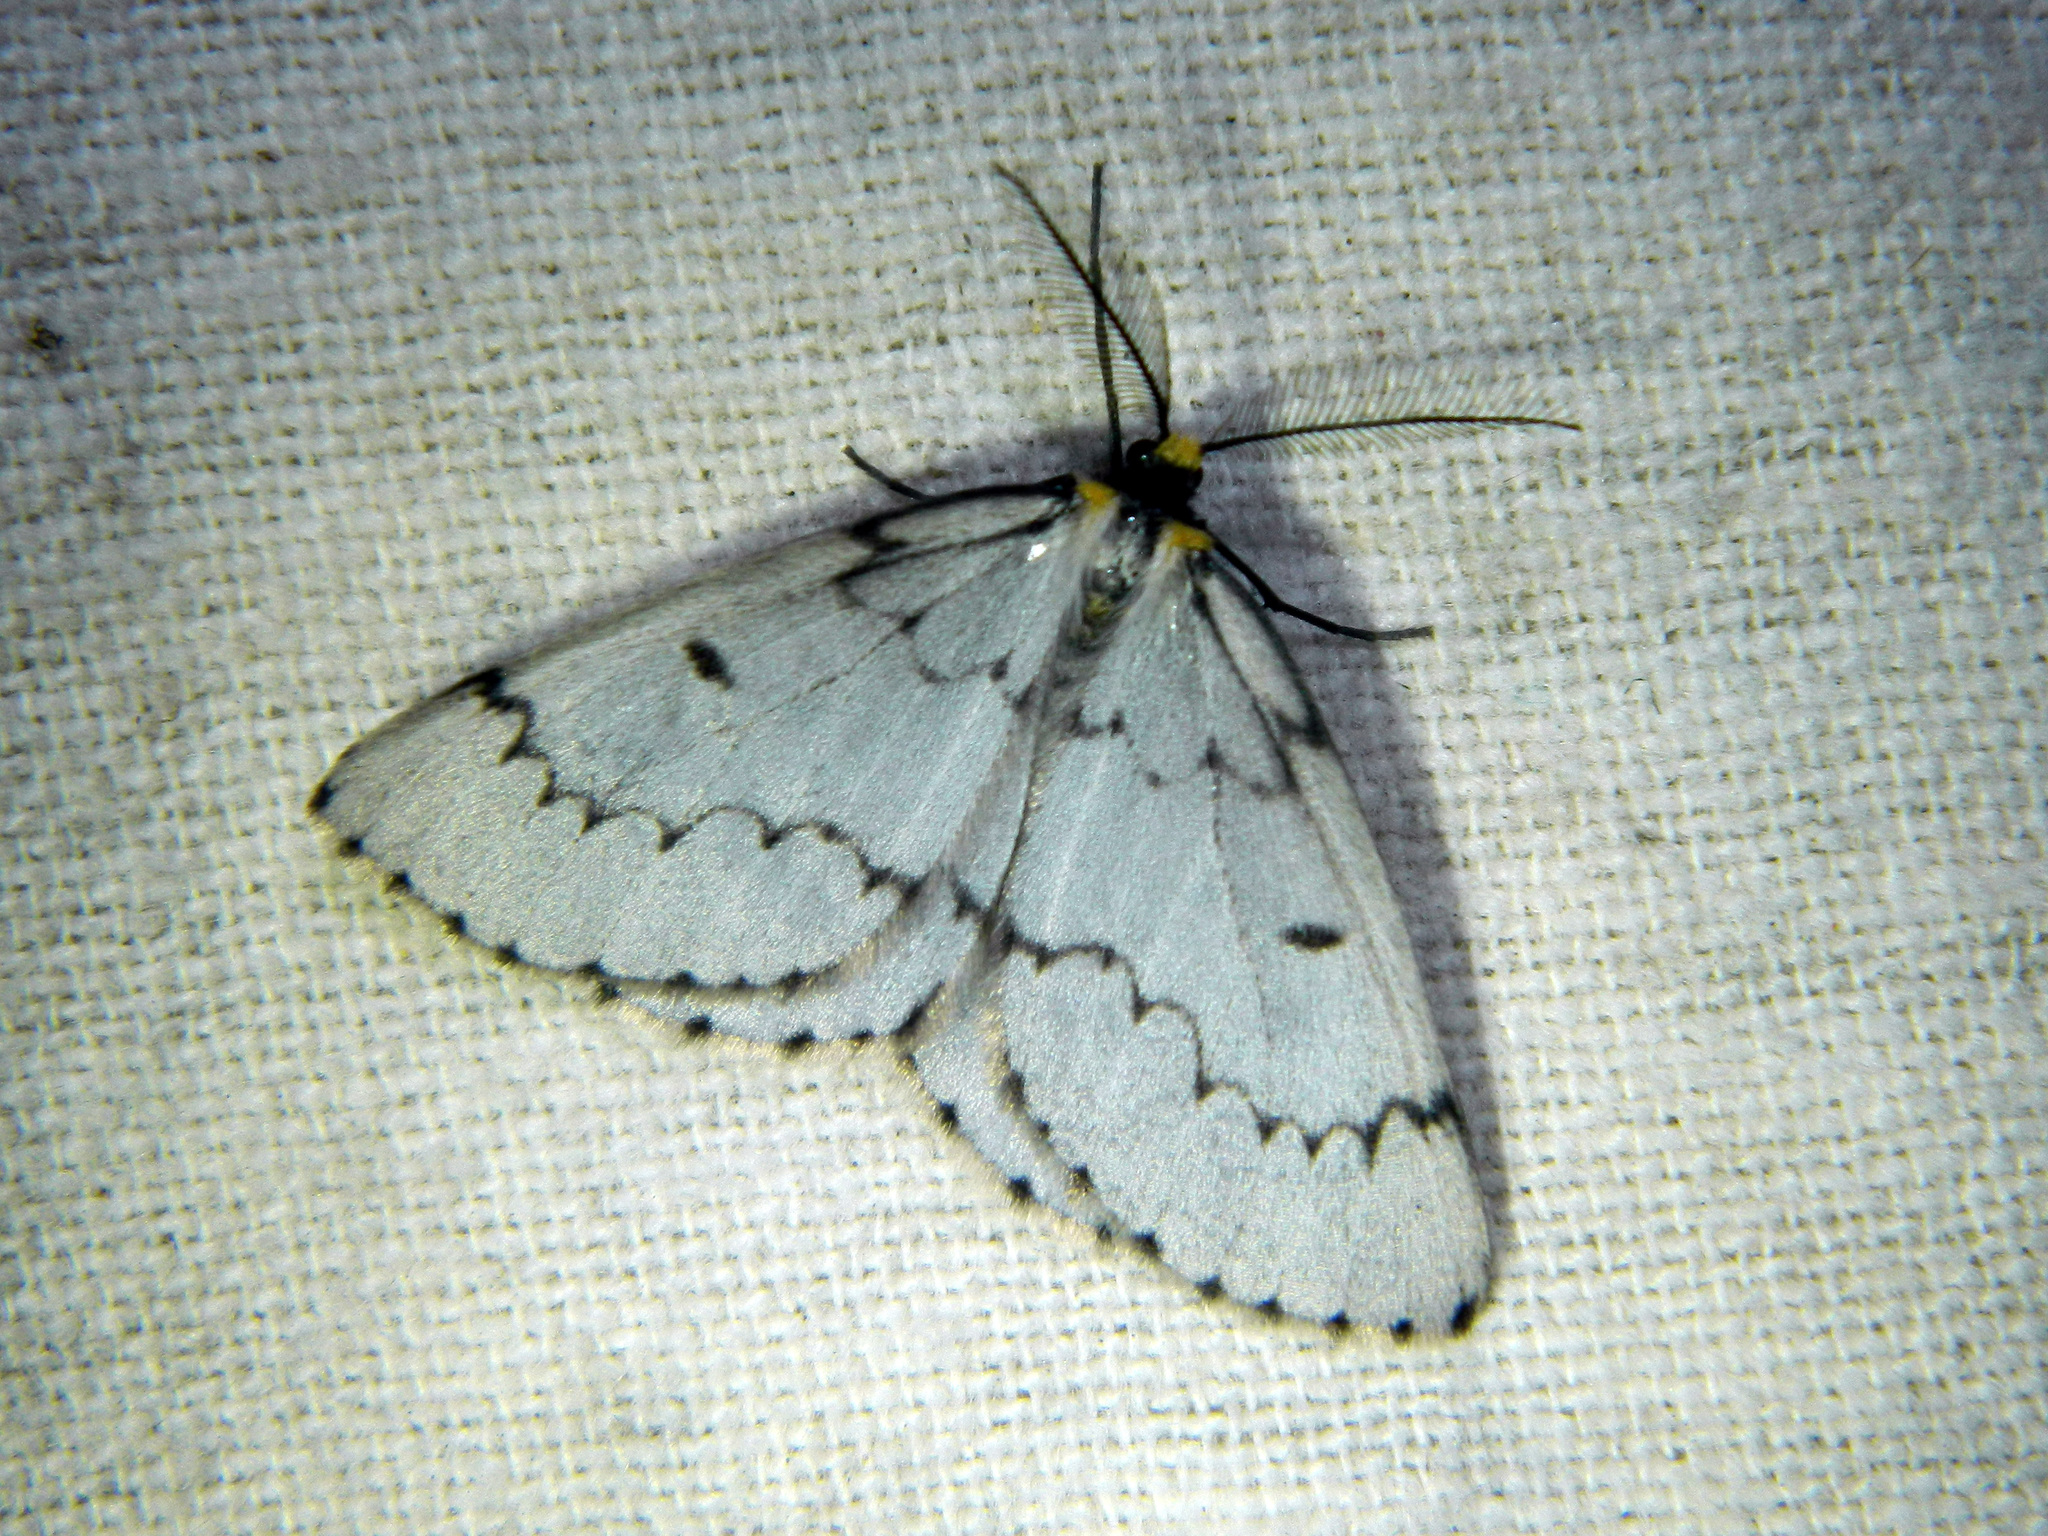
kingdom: Animalia
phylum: Arthropoda
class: Insecta
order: Lepidoptera
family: Geometridae
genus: Cingilia
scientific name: Cingilia catenaria
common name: Chain-dotted geometer
